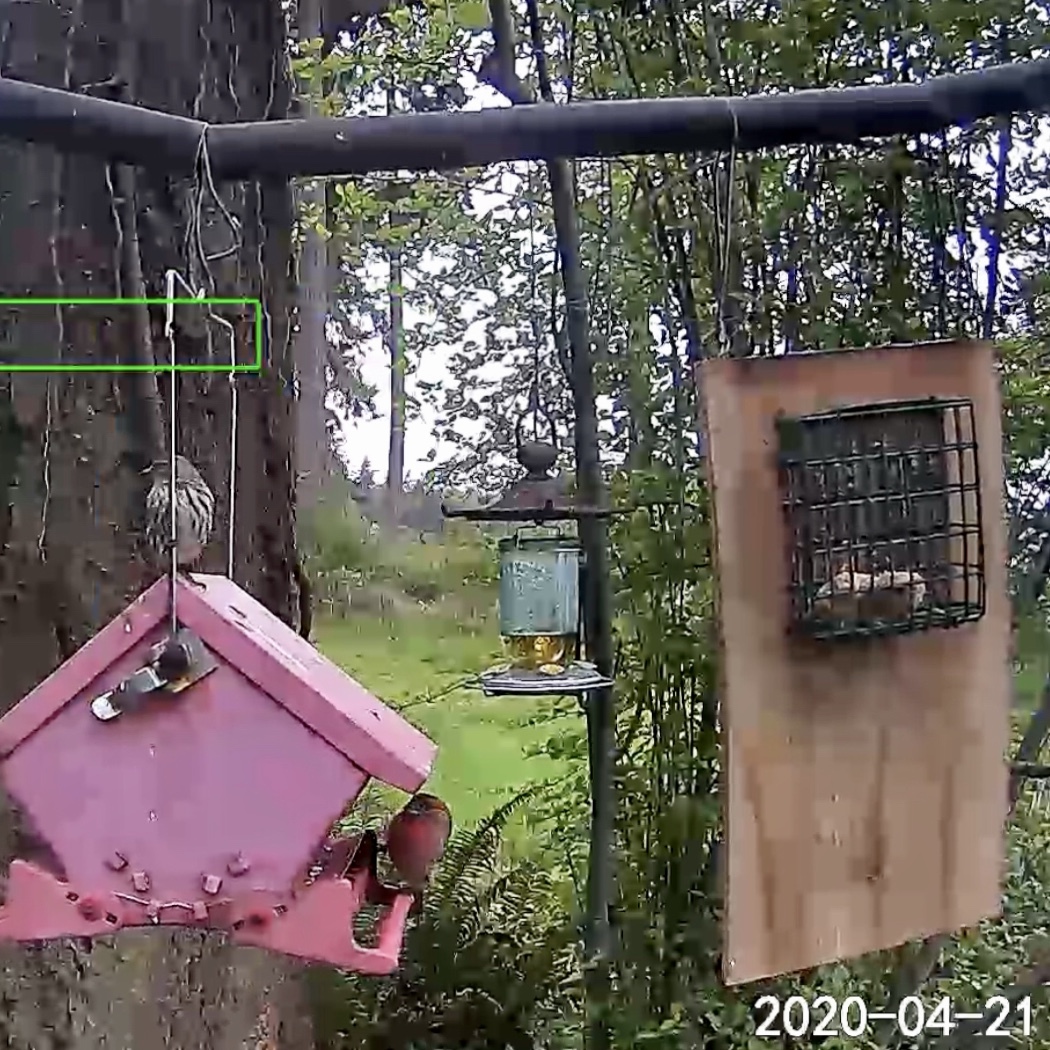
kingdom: Animalia
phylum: Chordata
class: Aves
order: Passeriformes
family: Fringillidae
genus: Haemorhous
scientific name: Haemorhous mexicanus
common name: House finch
